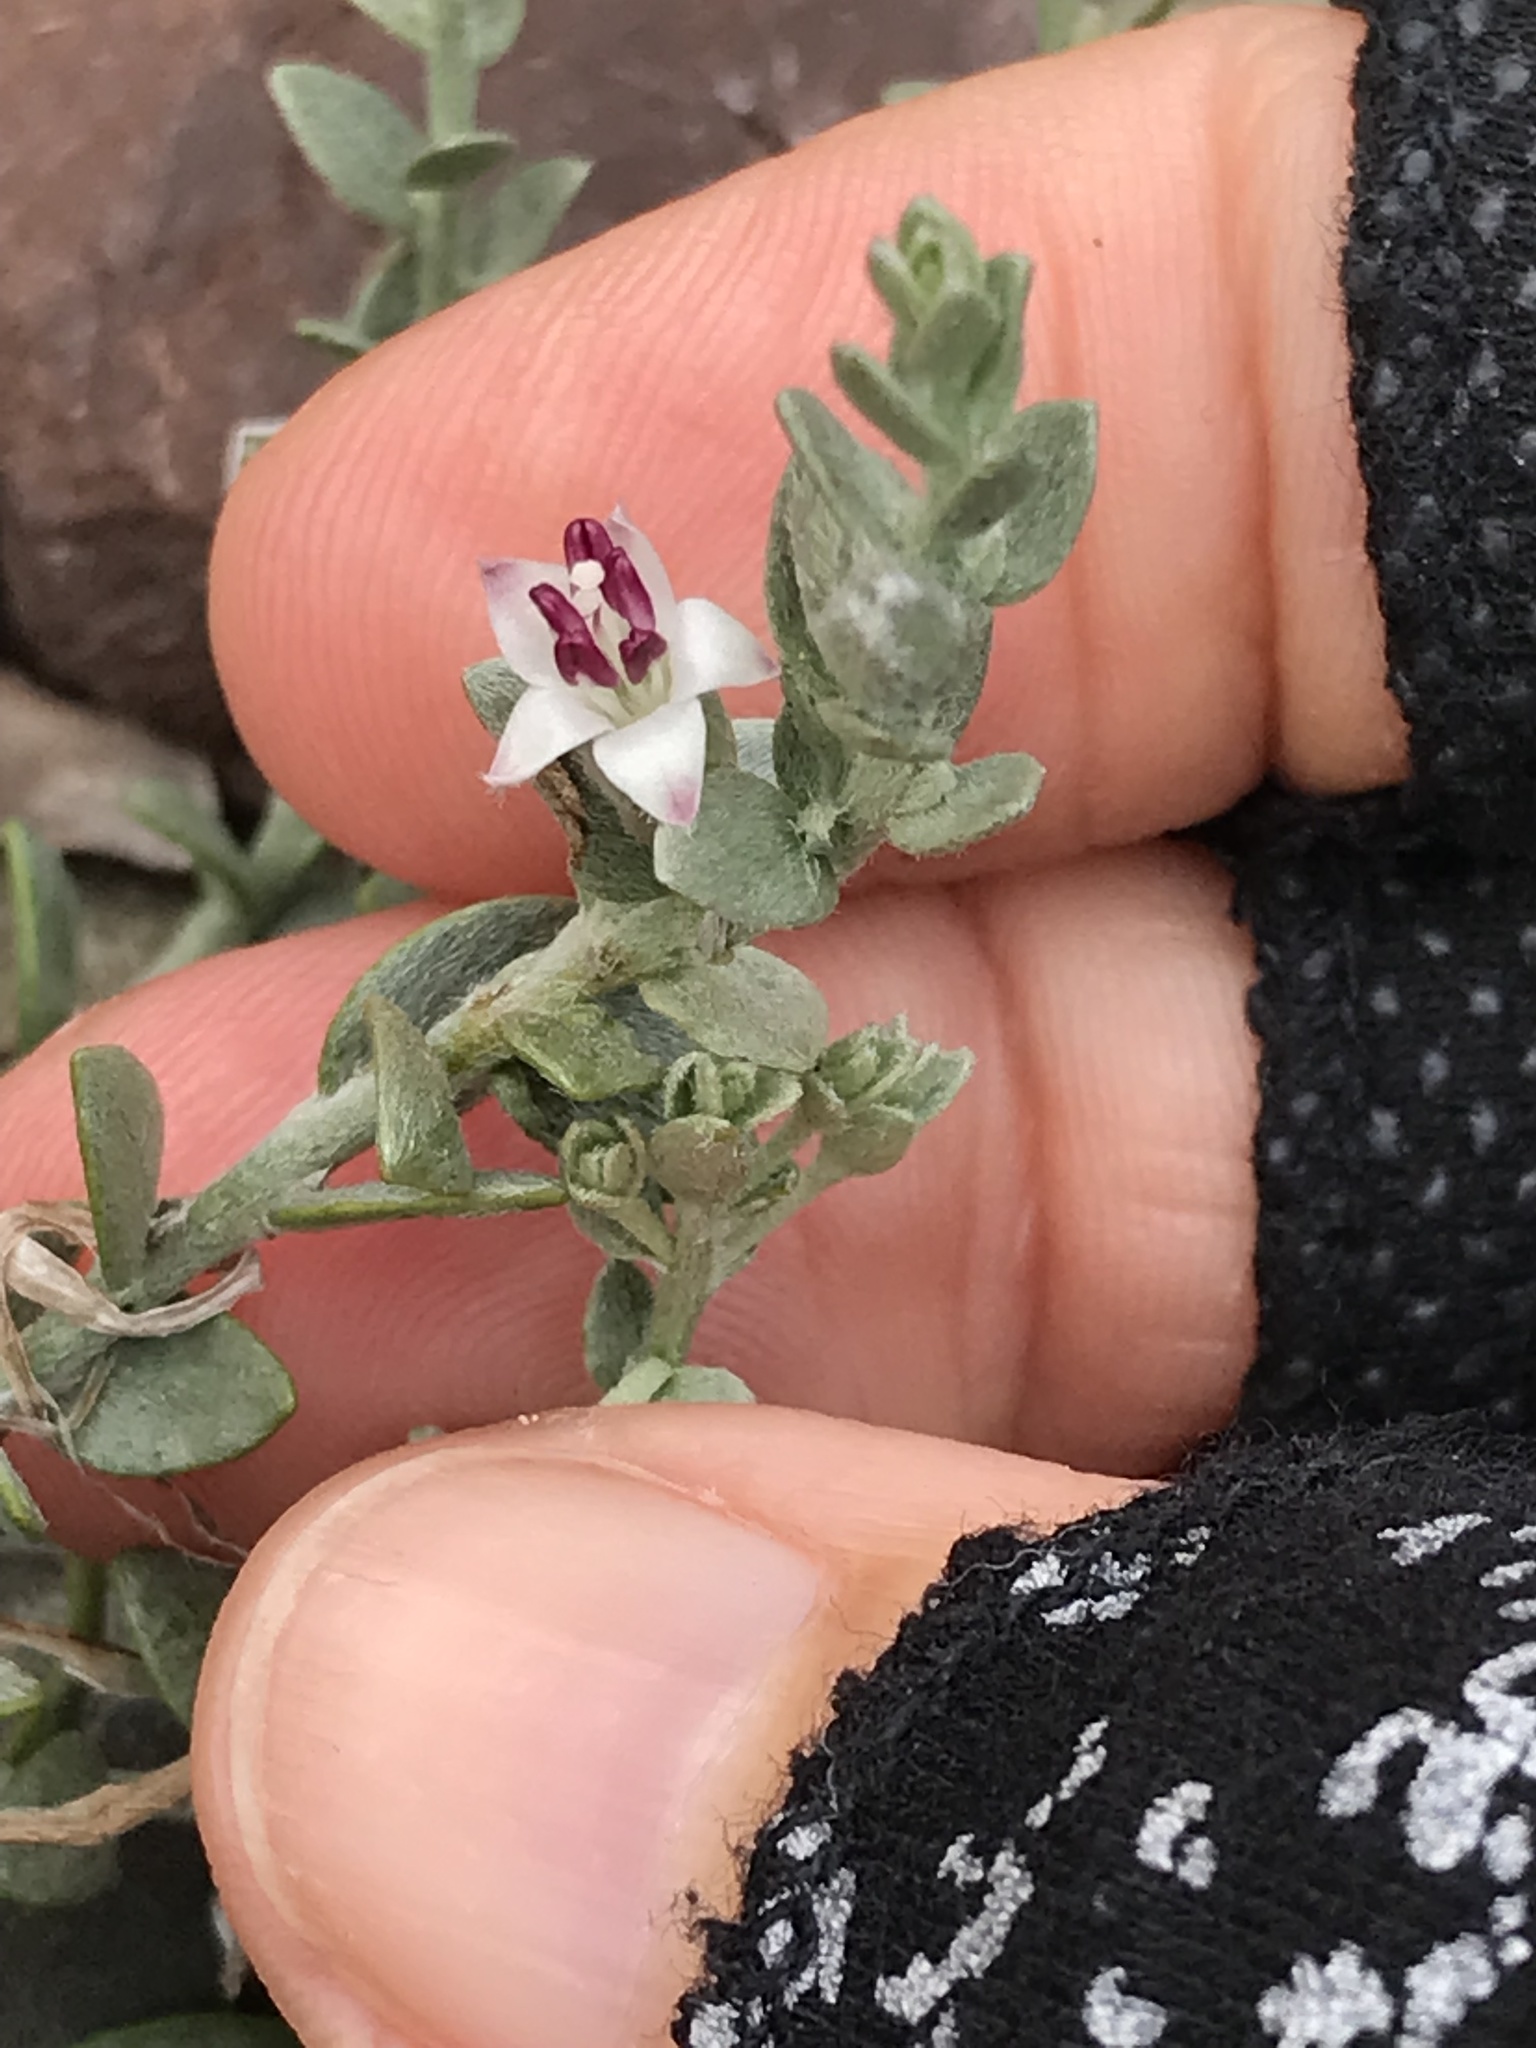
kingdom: Plantae
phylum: Tracheophyta
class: Magnoliopsida
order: Solanales
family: Convolvulaceae
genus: Cressa
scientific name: Cressa truxillensis
